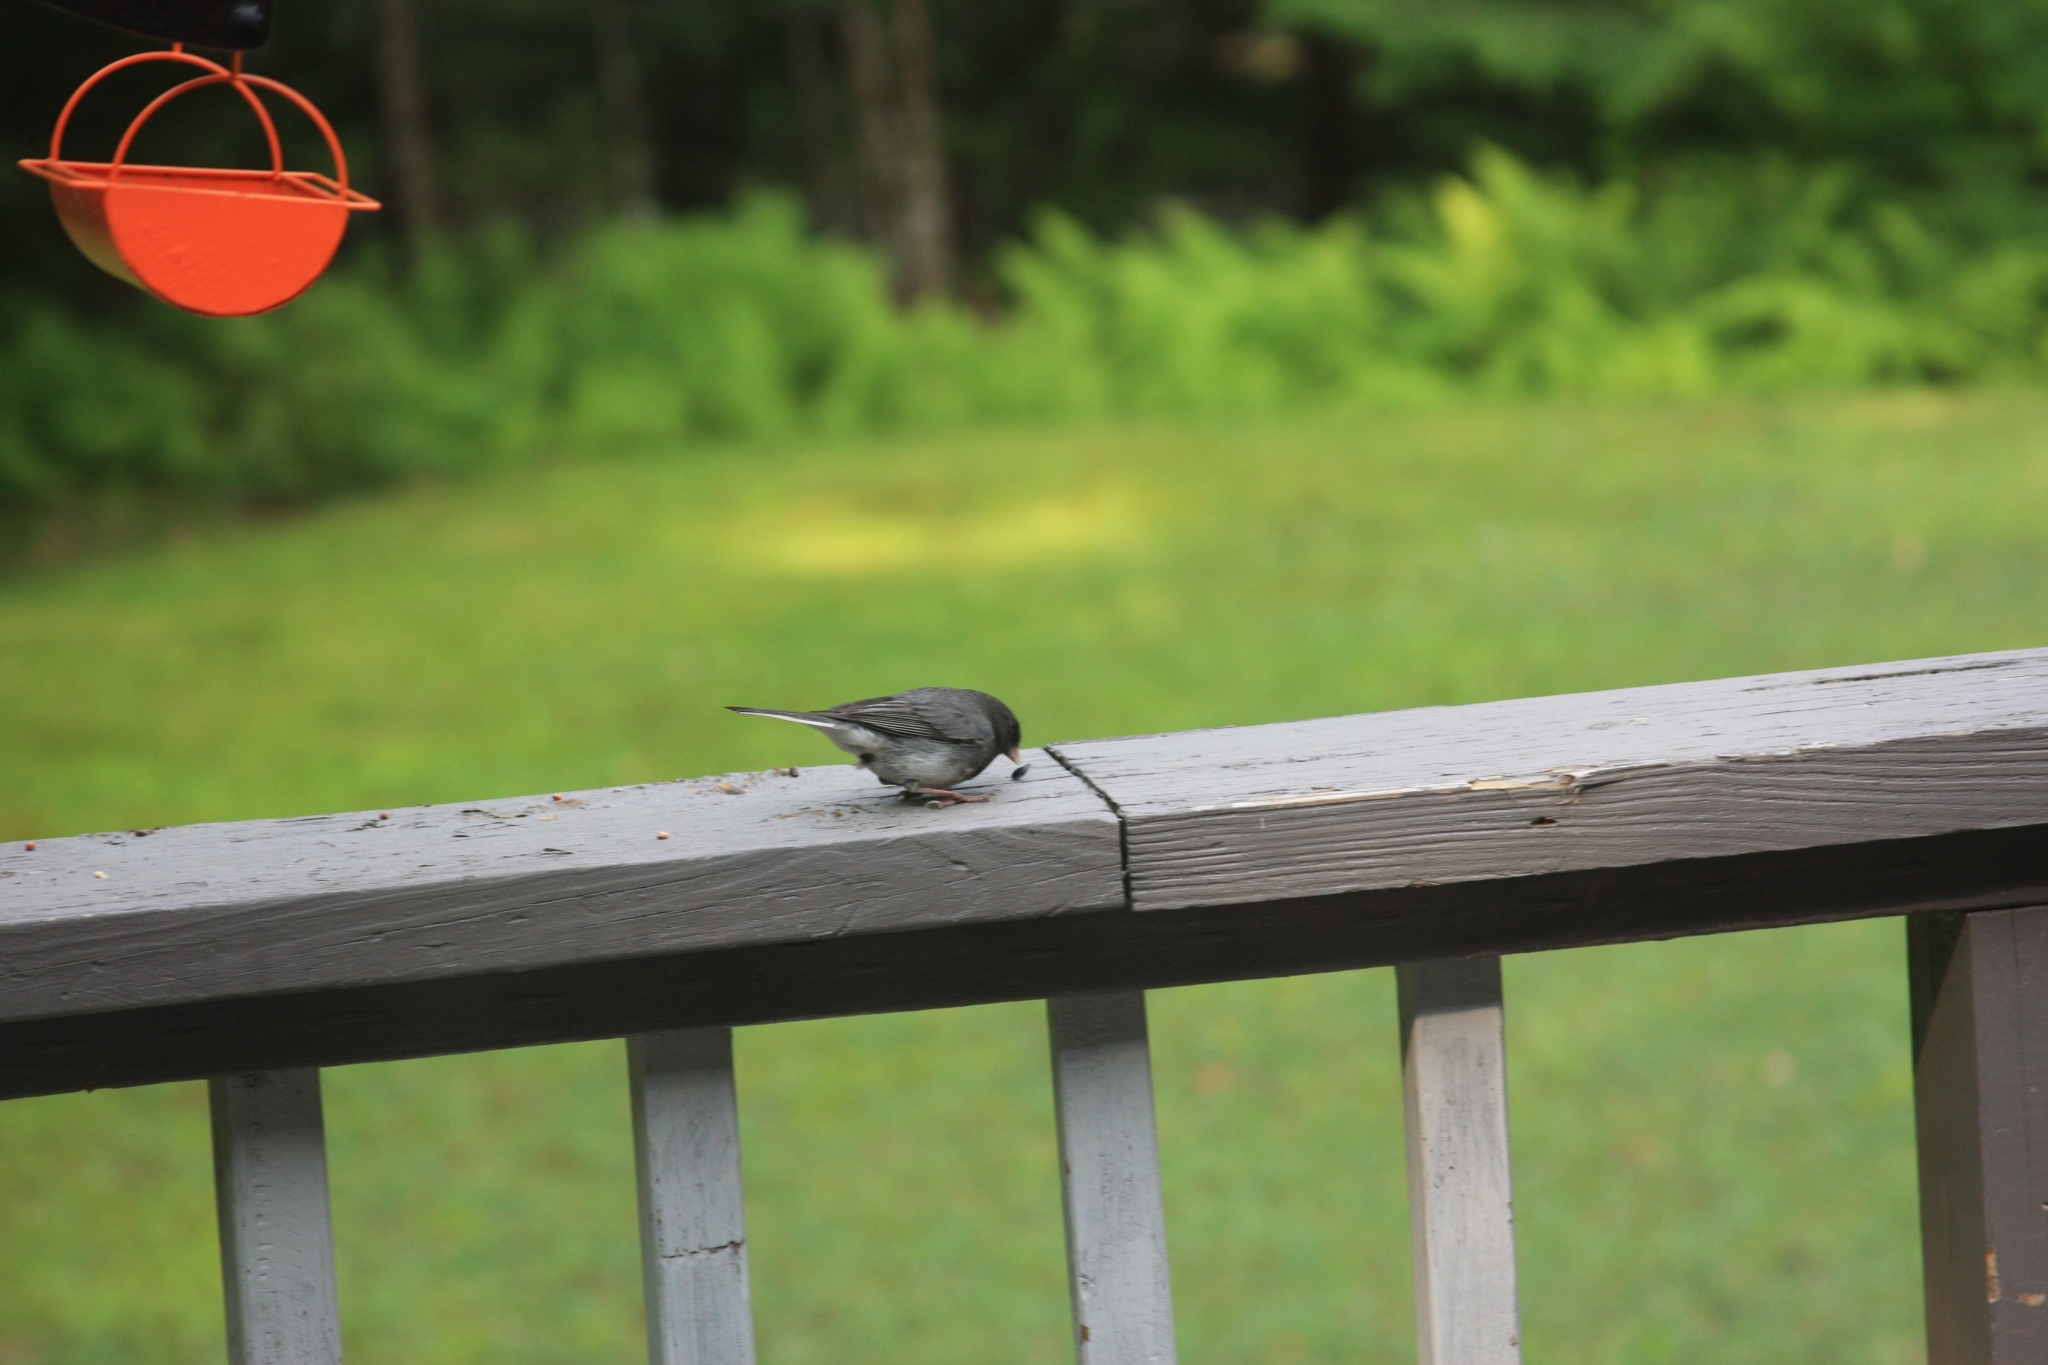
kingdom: Animalia
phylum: Chordata
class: Aves
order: Passeriformes
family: Passerellidae
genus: Junco
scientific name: Junco hyemalis
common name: Dark-eyed junco
